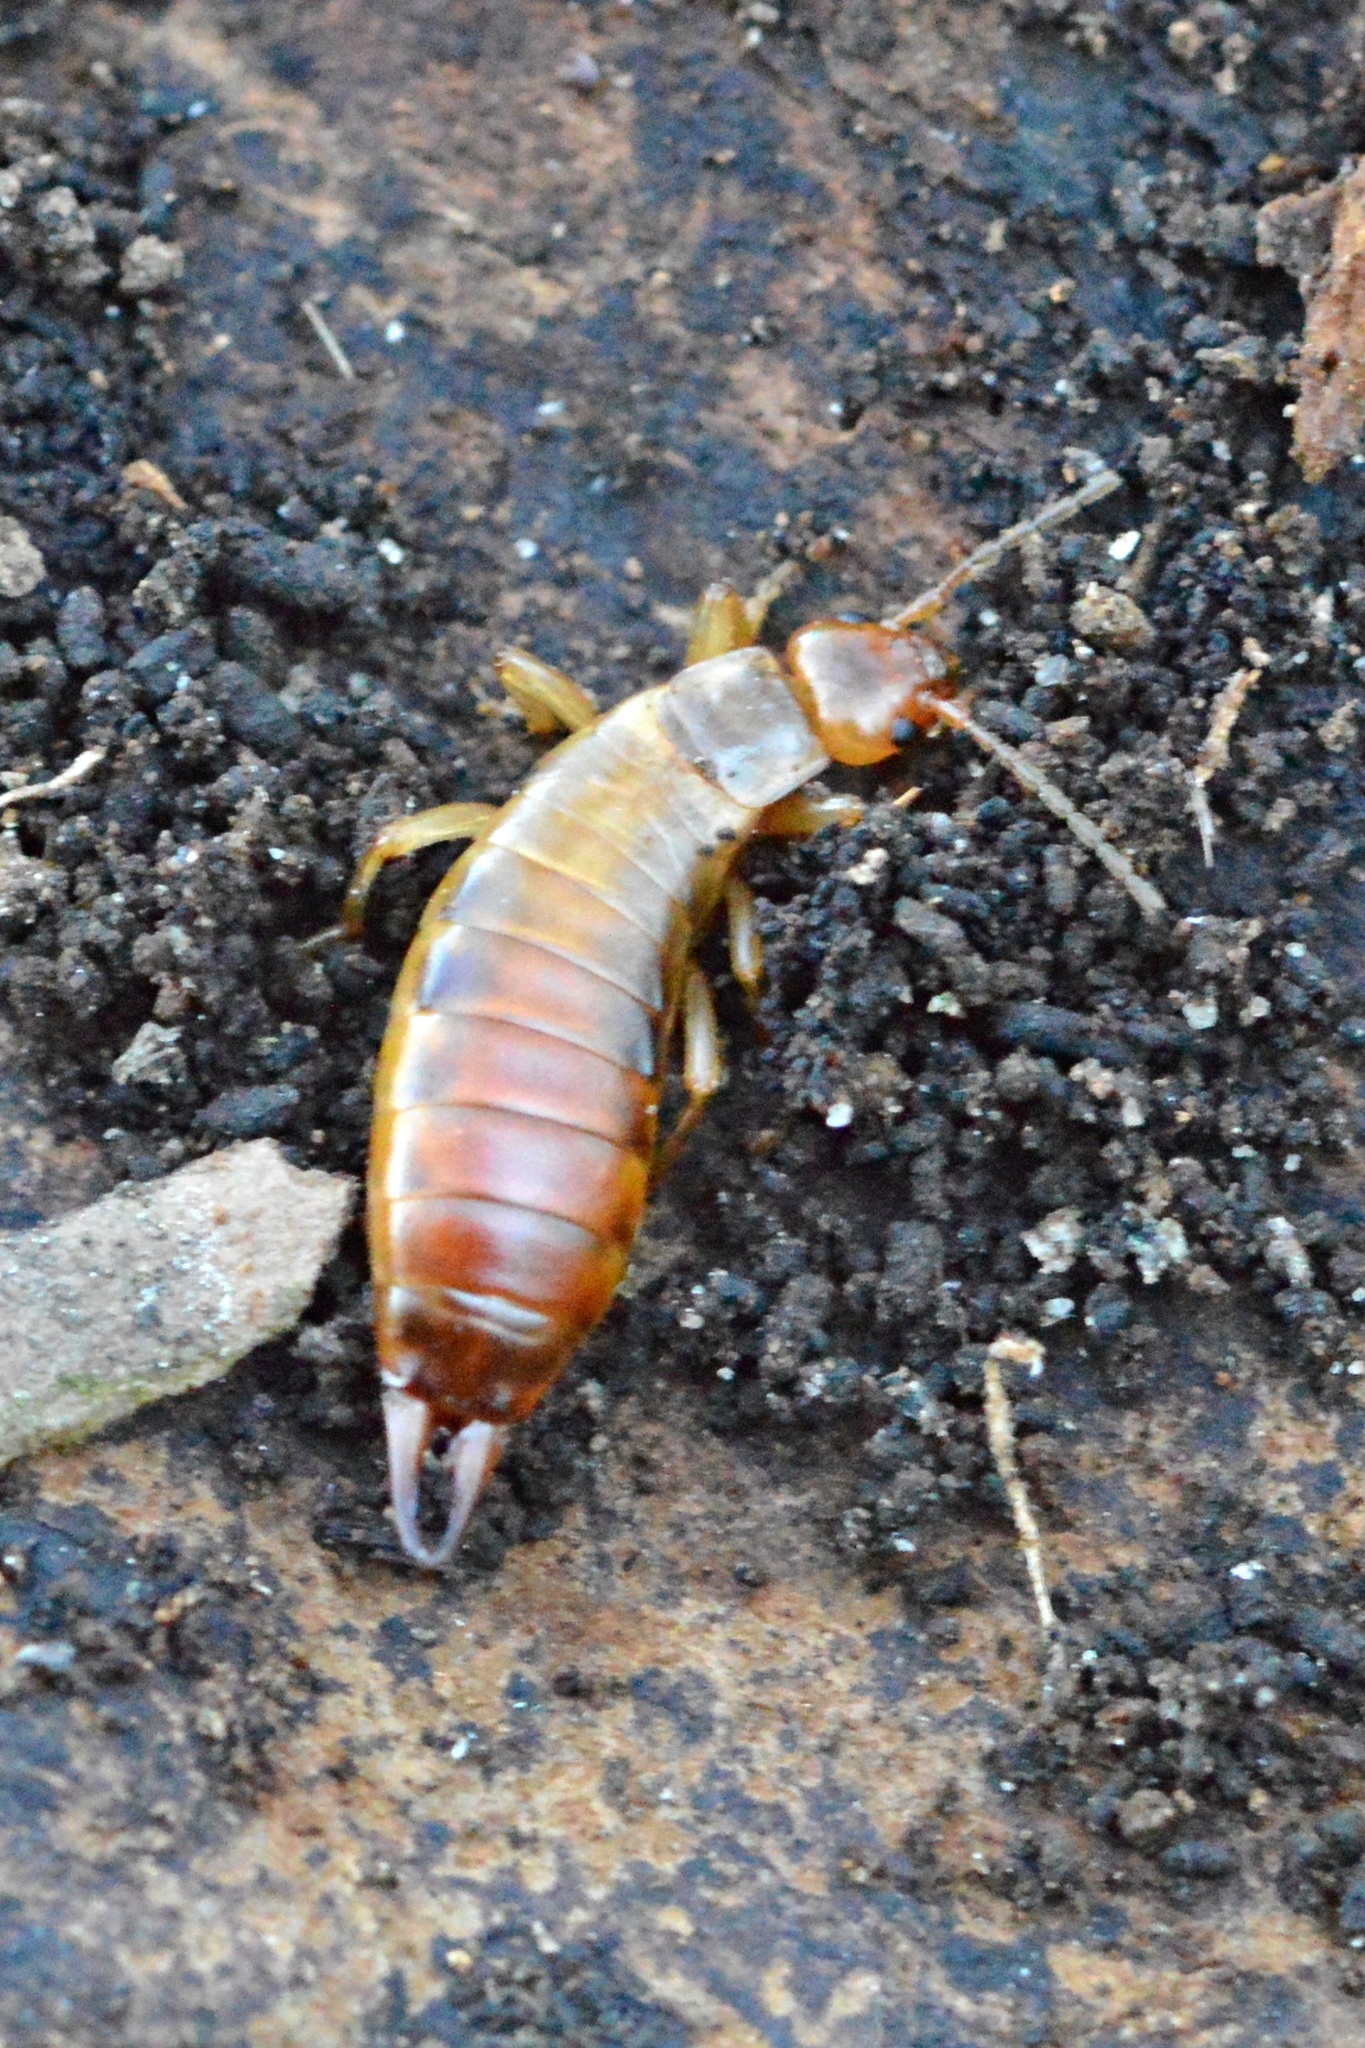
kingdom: Animalia
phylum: Arthropoda
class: Insecta
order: Dermaptera
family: Forficulidae
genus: Chelidurella
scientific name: Chelidurella acanthopygia
